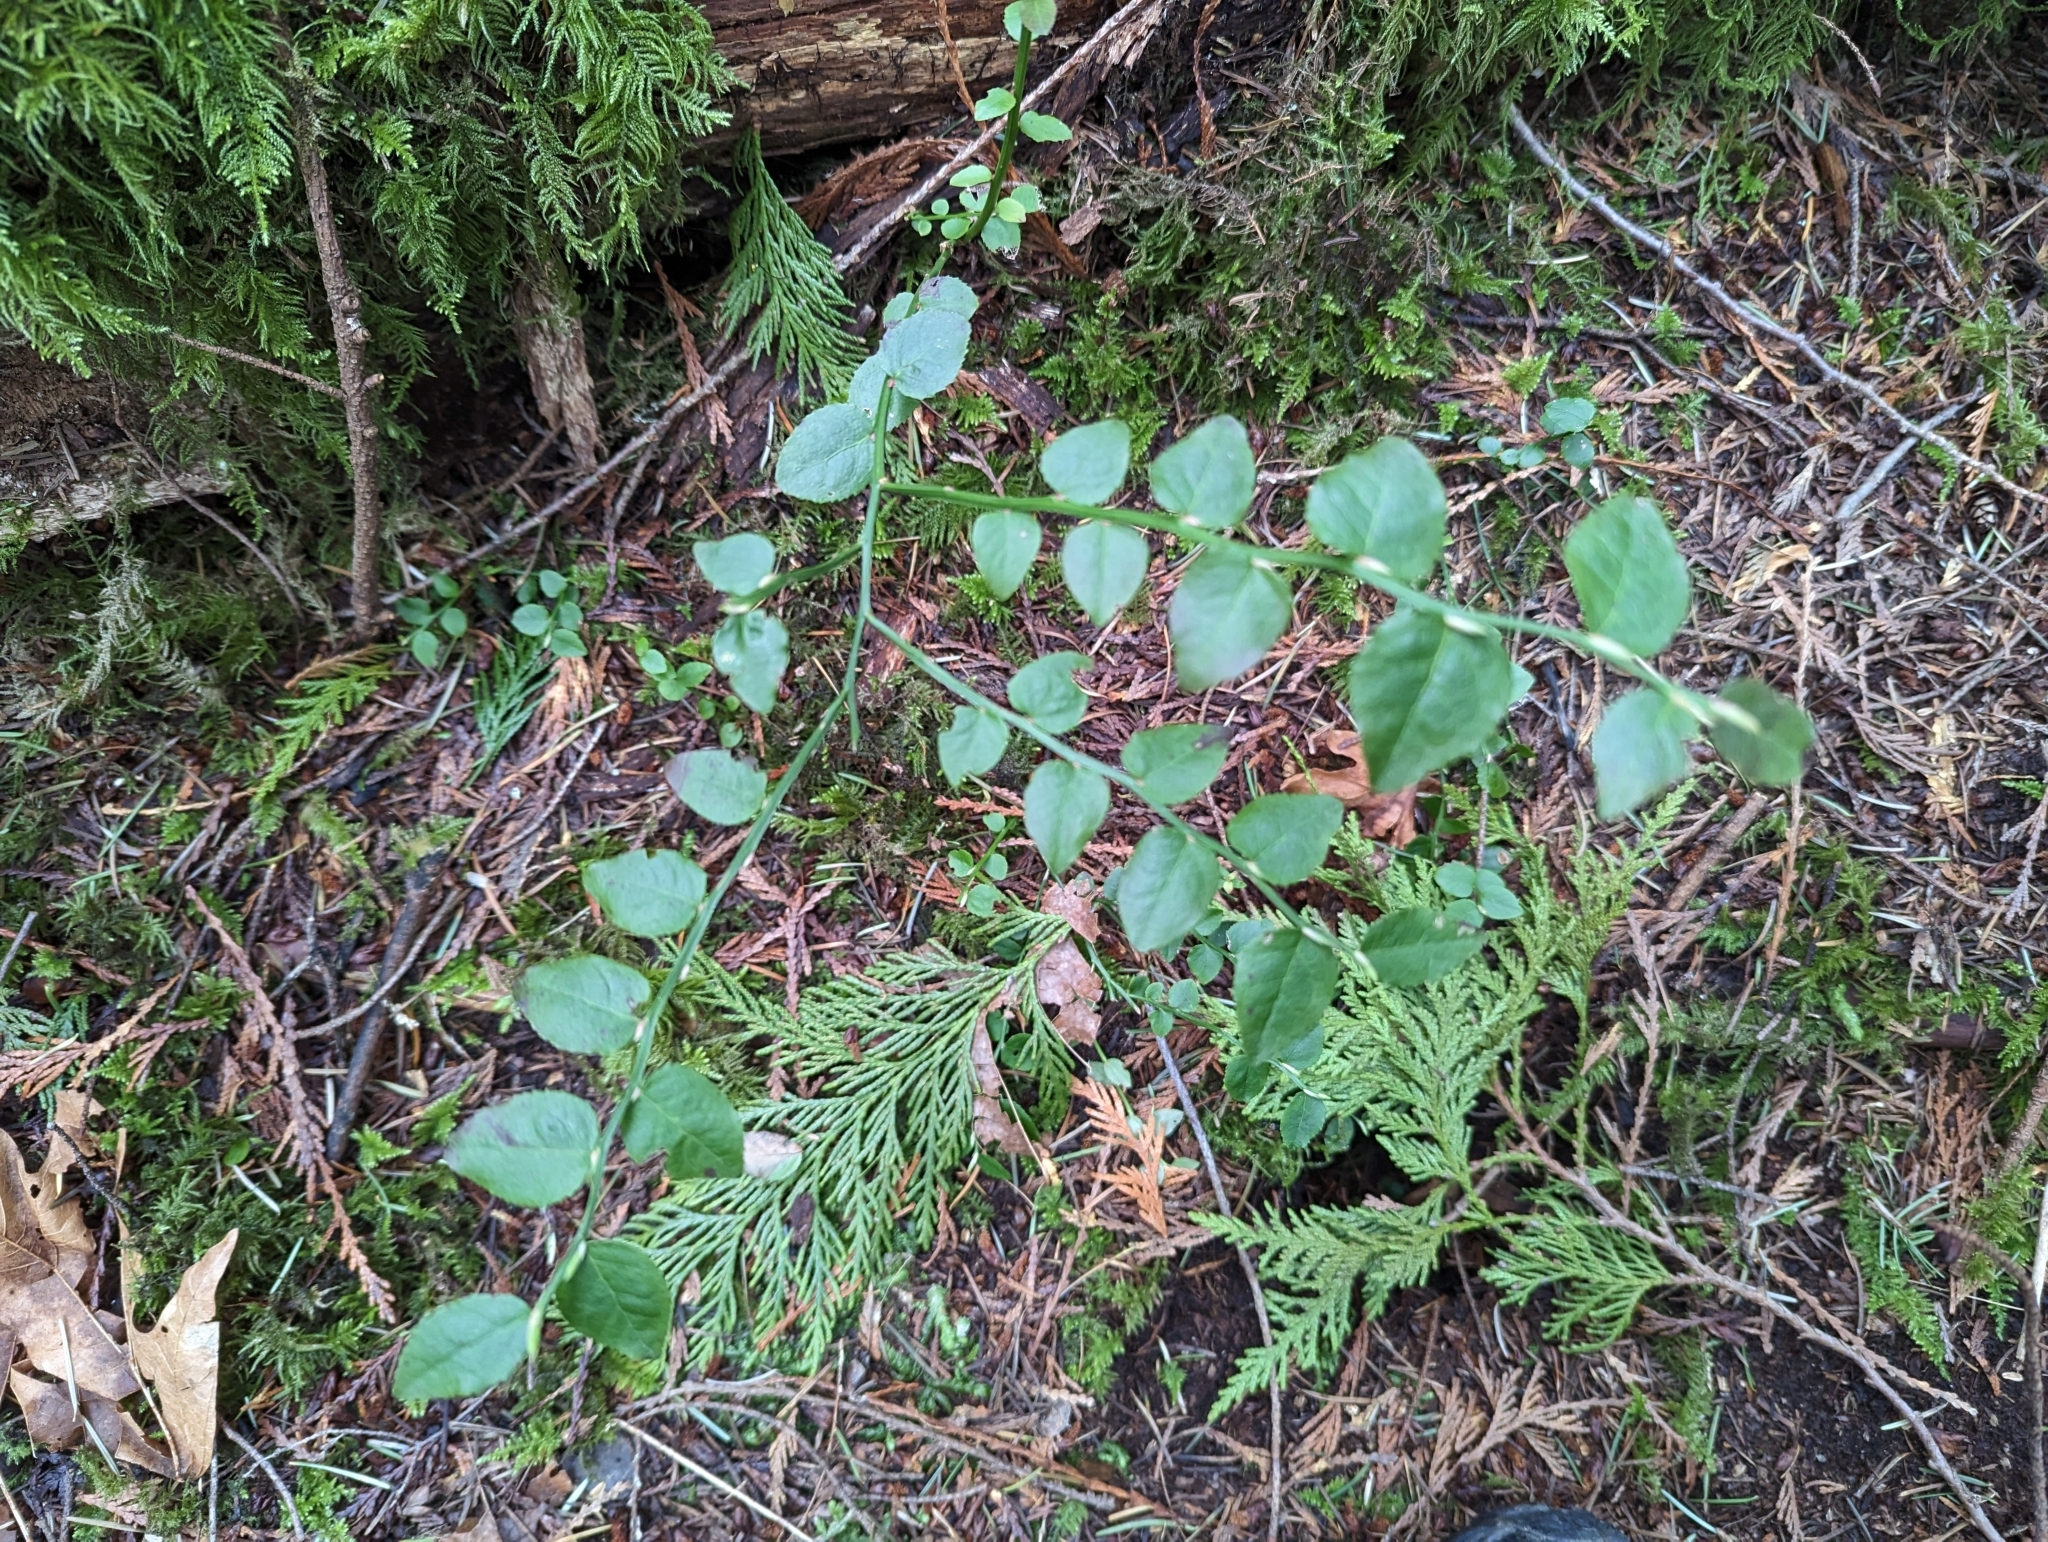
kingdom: Plantae
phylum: Tracheophyta
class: Magnoliopsida
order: Ericales
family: Ericaceae
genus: Vaccinium
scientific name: Vaccinium parvifolium
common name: Red-huckleberry
